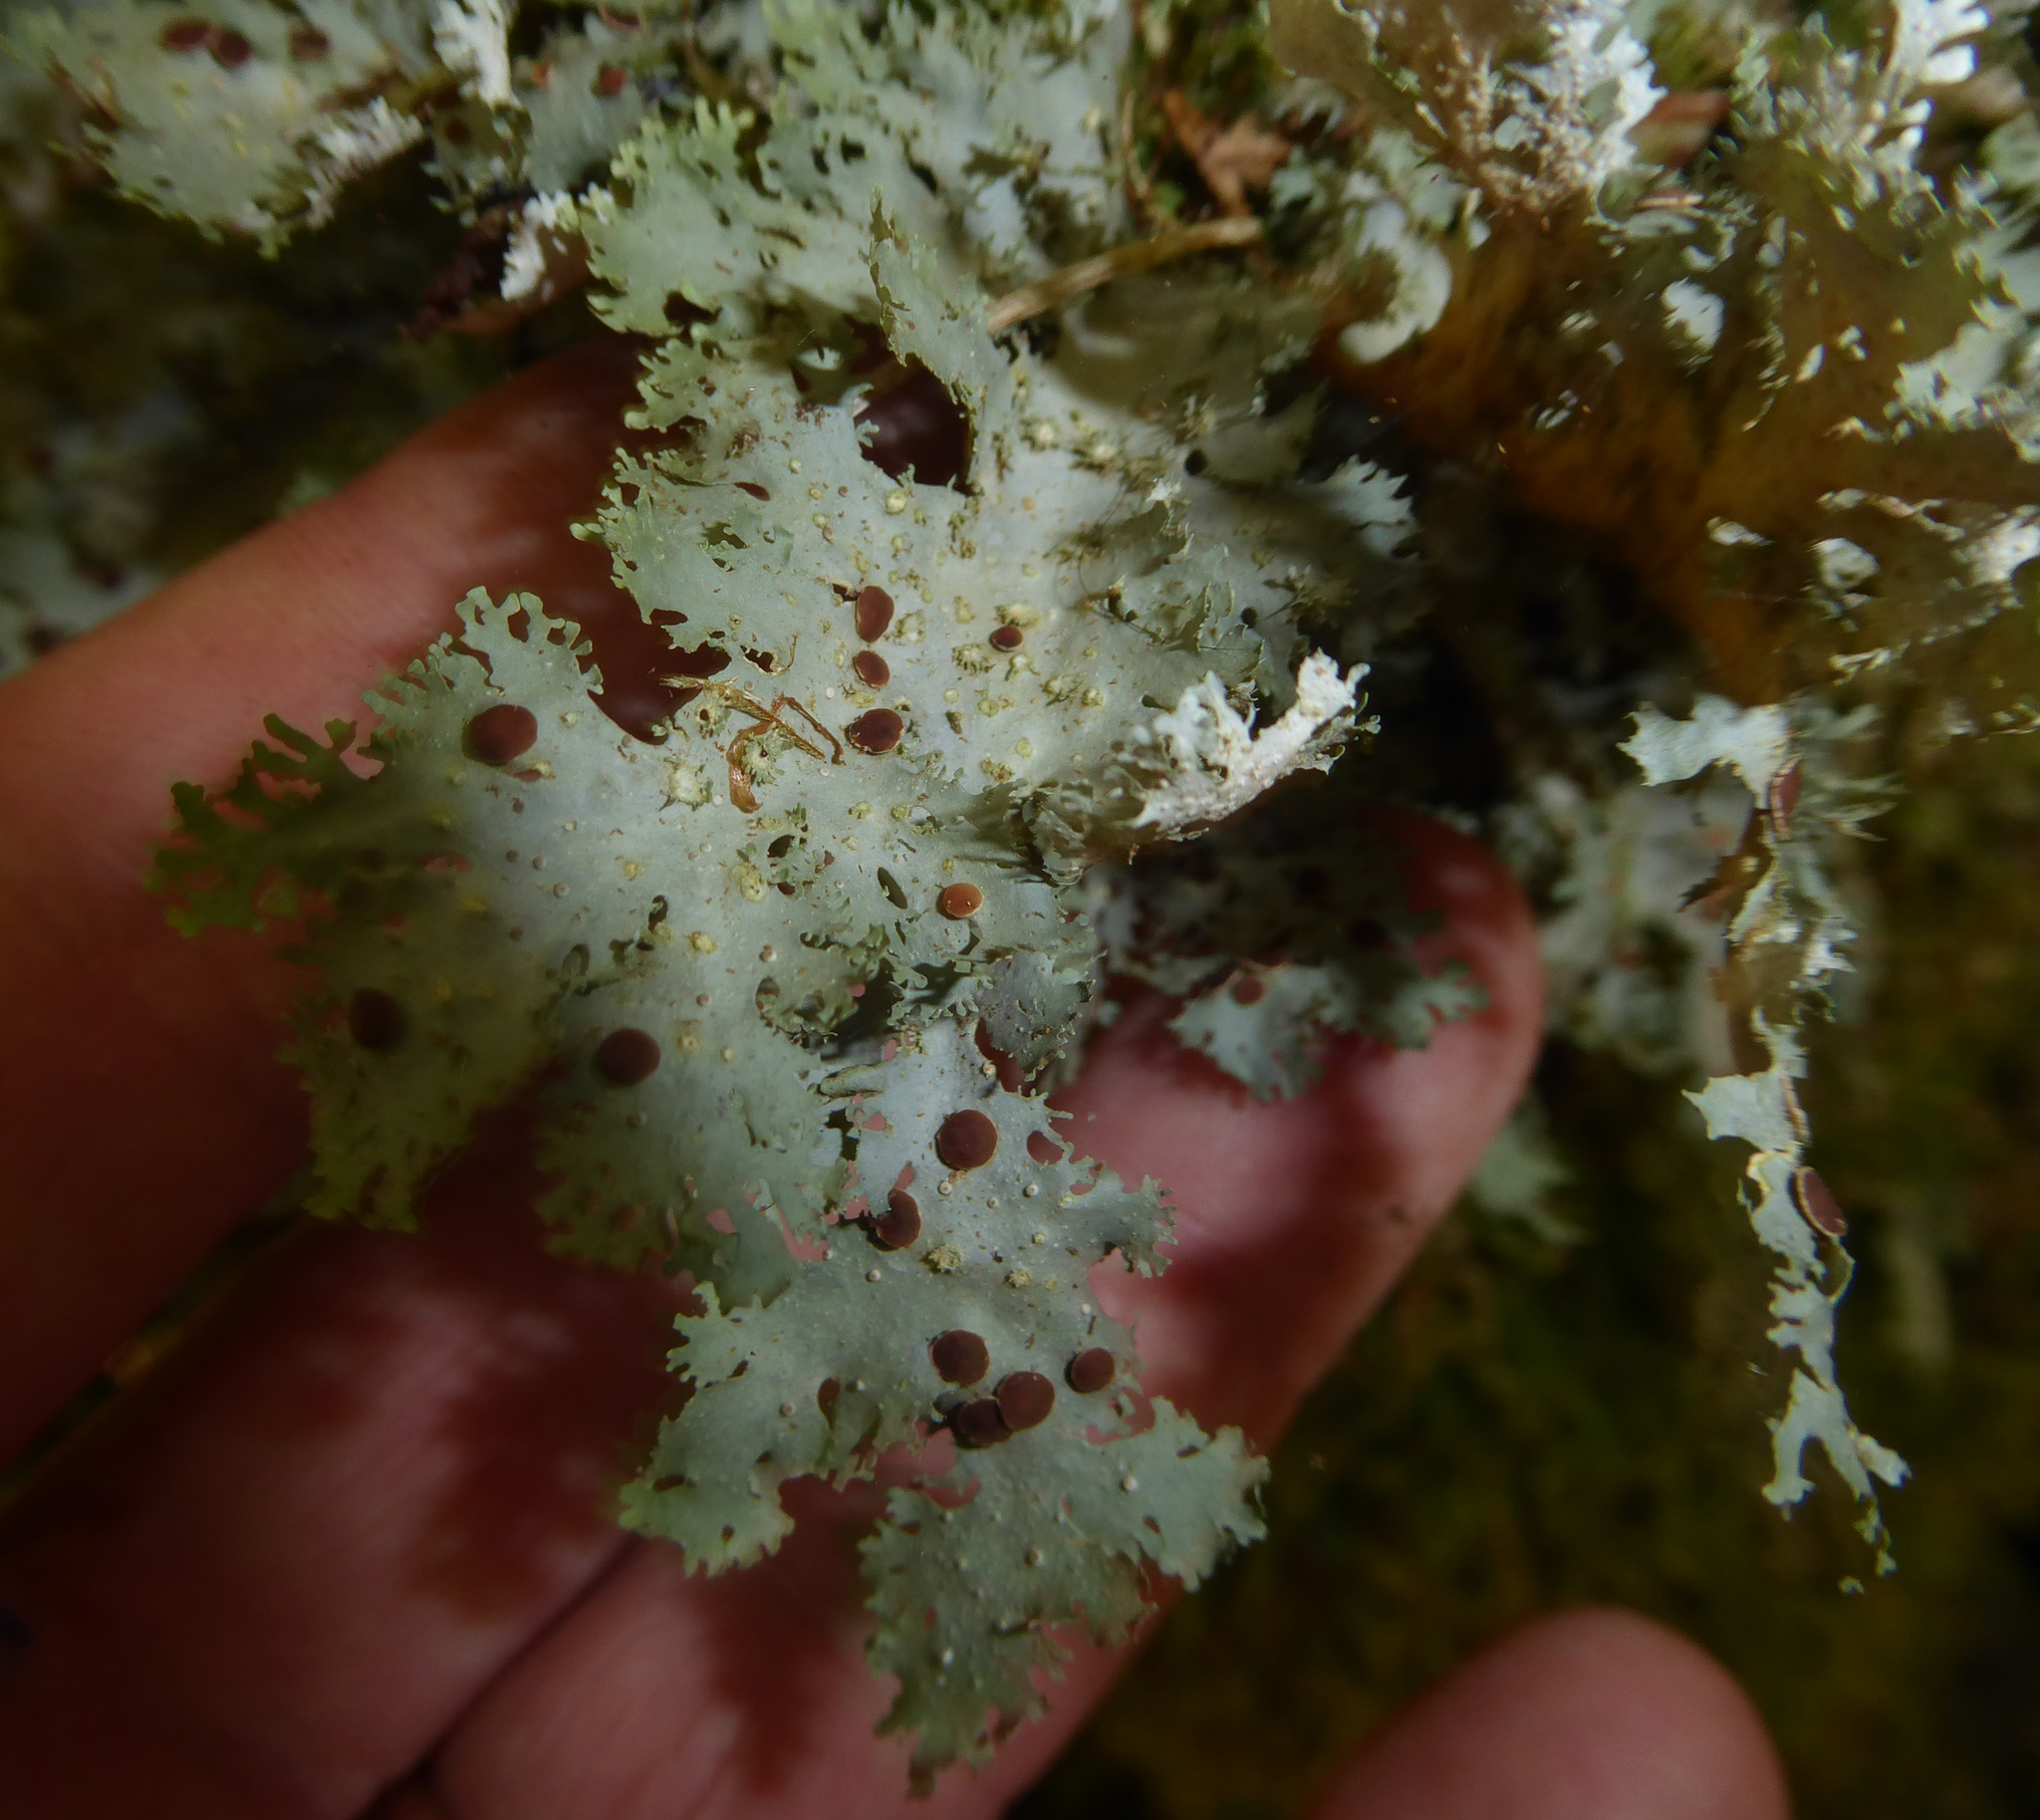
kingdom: Fungi
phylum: Ascomycota
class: Lecanoromycetes
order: Peltigerales
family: Lobariaceae
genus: Sticta
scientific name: Sticta filix
